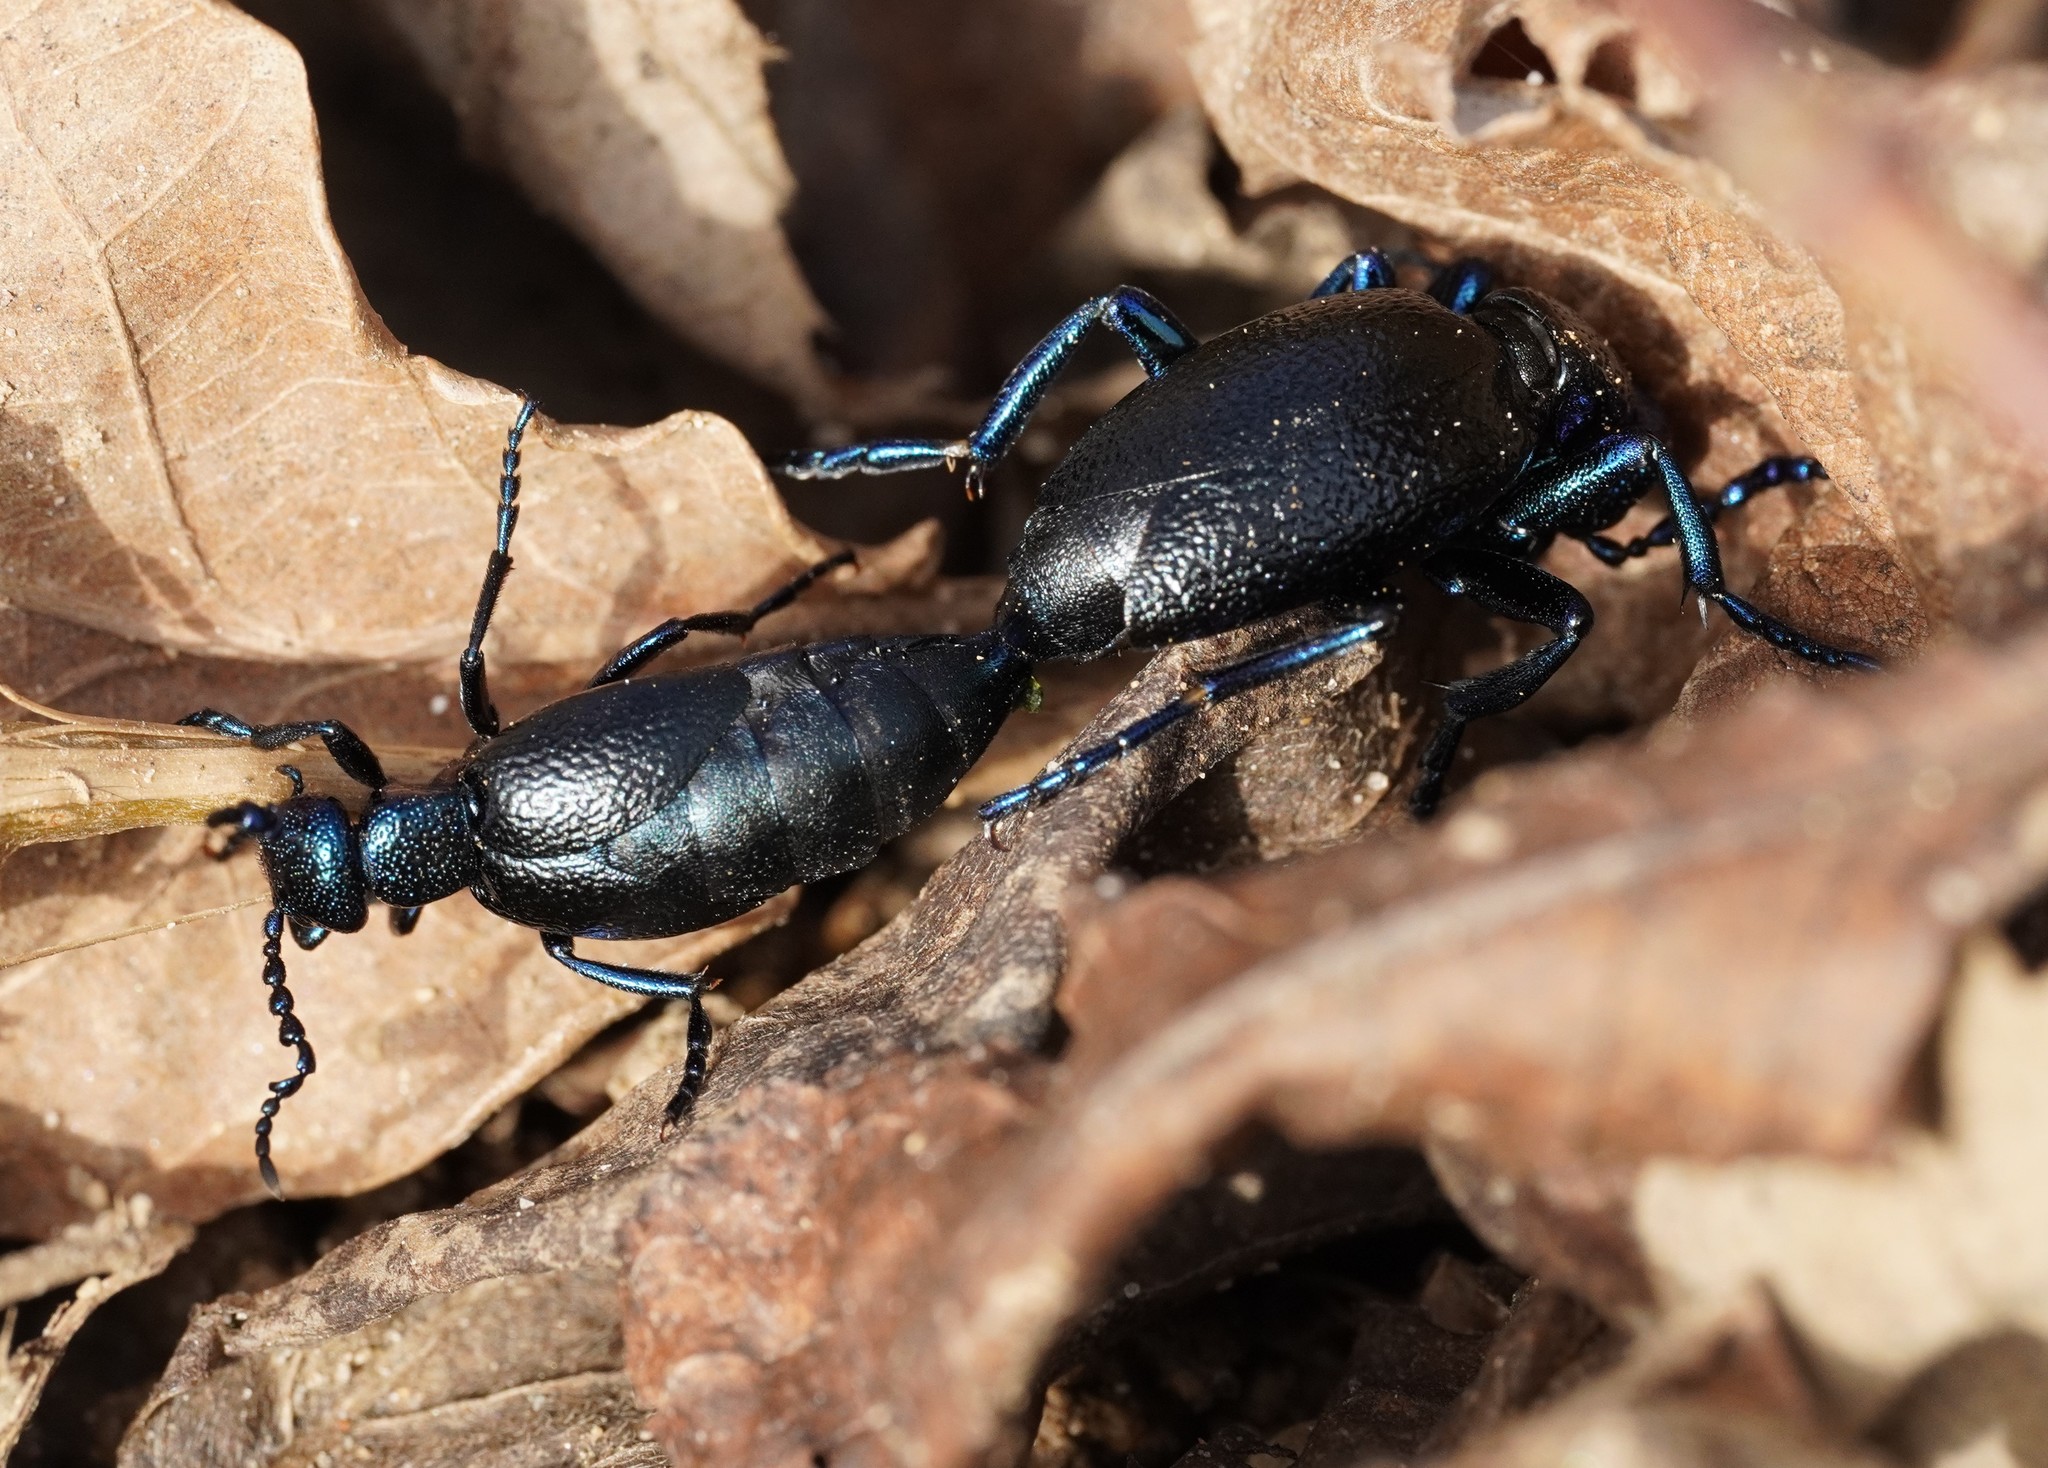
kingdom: Animalia
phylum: Arthropoda
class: Insecta
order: Coleoptera
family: Meloidae
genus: Meloe
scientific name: Meloe proscarabaeus
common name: Black oil-beetle
